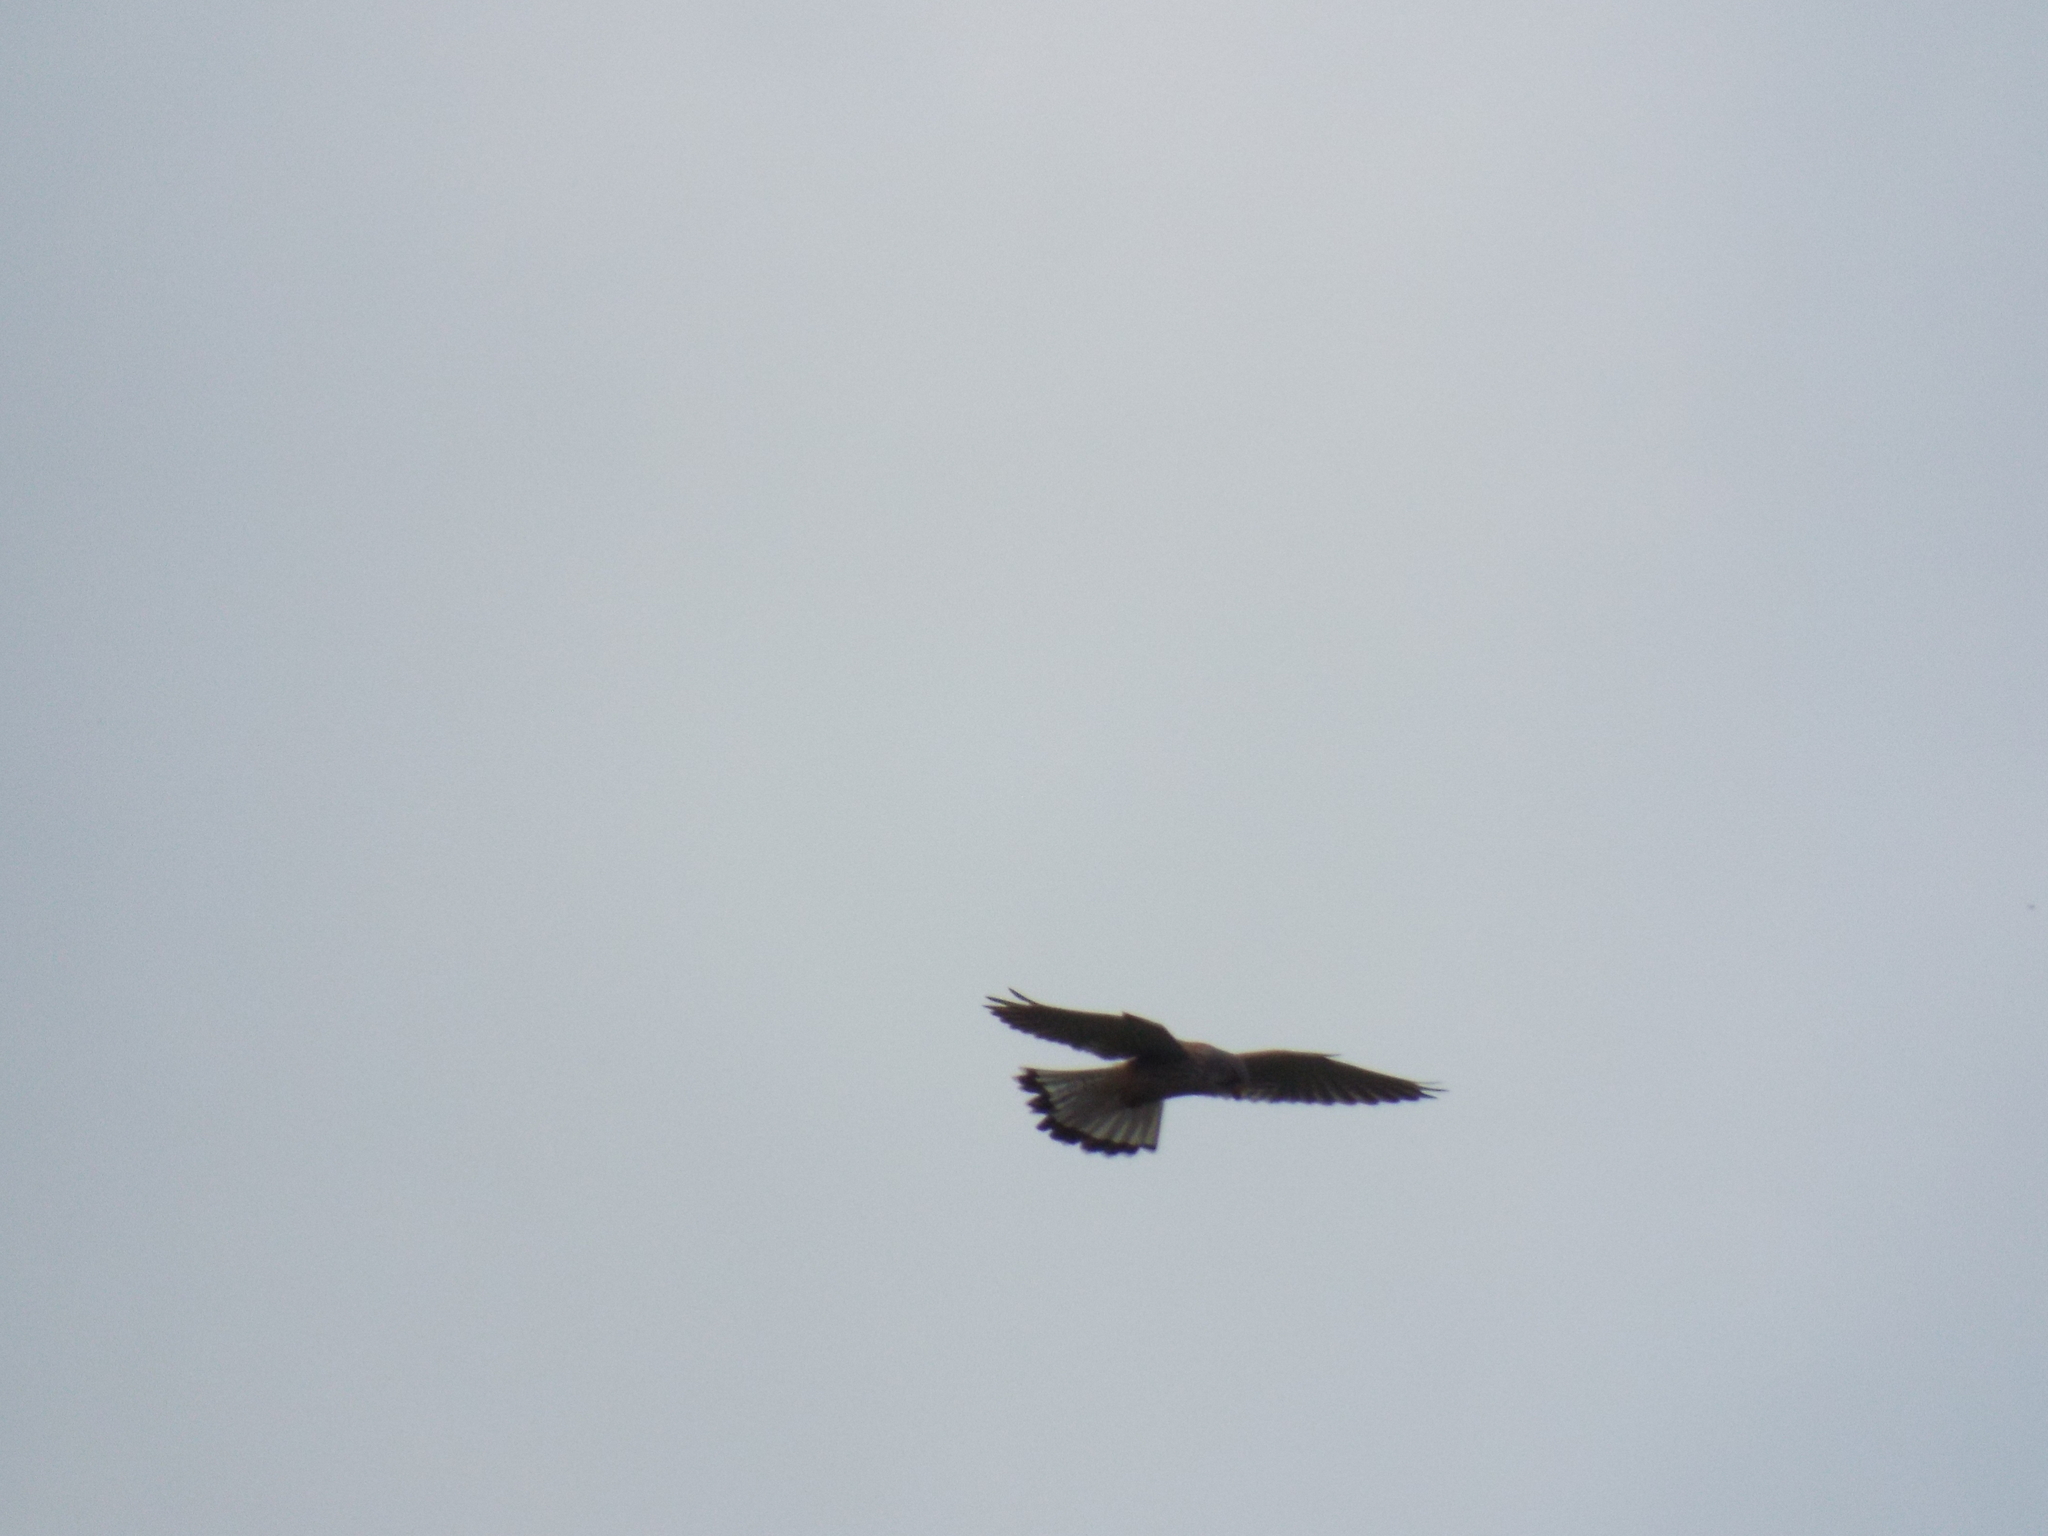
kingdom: Animalia
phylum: Chordata
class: Aves
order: Falconiformes
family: Falconidae
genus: Falco
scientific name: Falco tinnunculus
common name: Common kestrel
